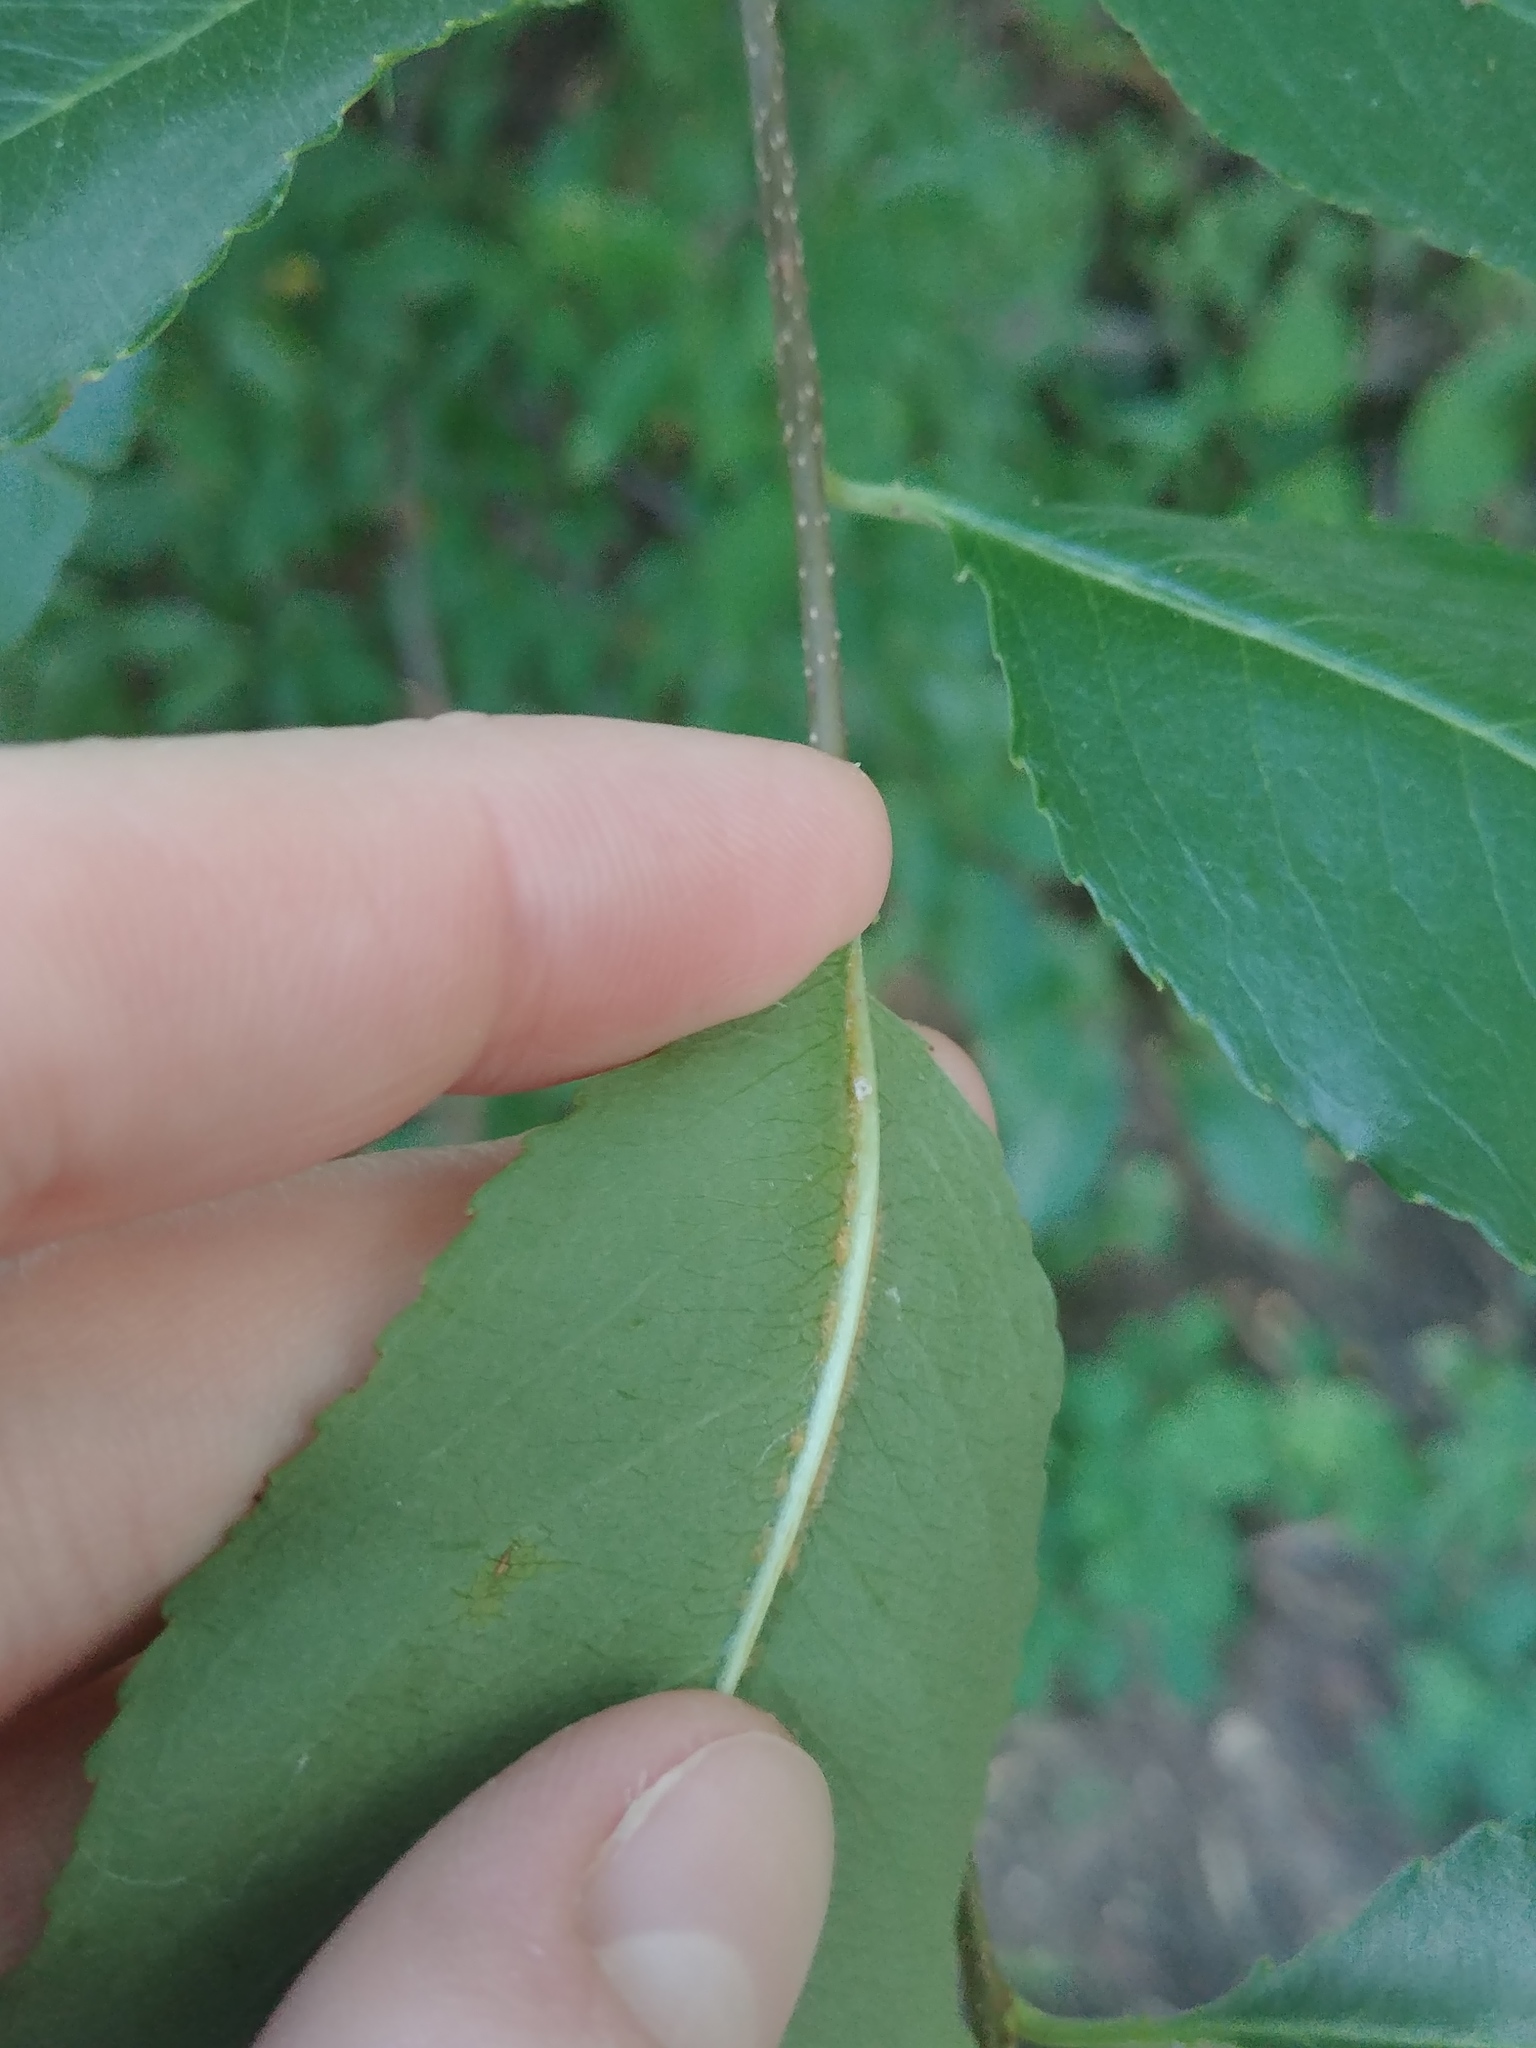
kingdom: Plantae
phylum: Tracheophyta
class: Magnoliopsida
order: Rosales
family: Rosaceae
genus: Prunus
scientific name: Prunus serotina
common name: Black cherry
